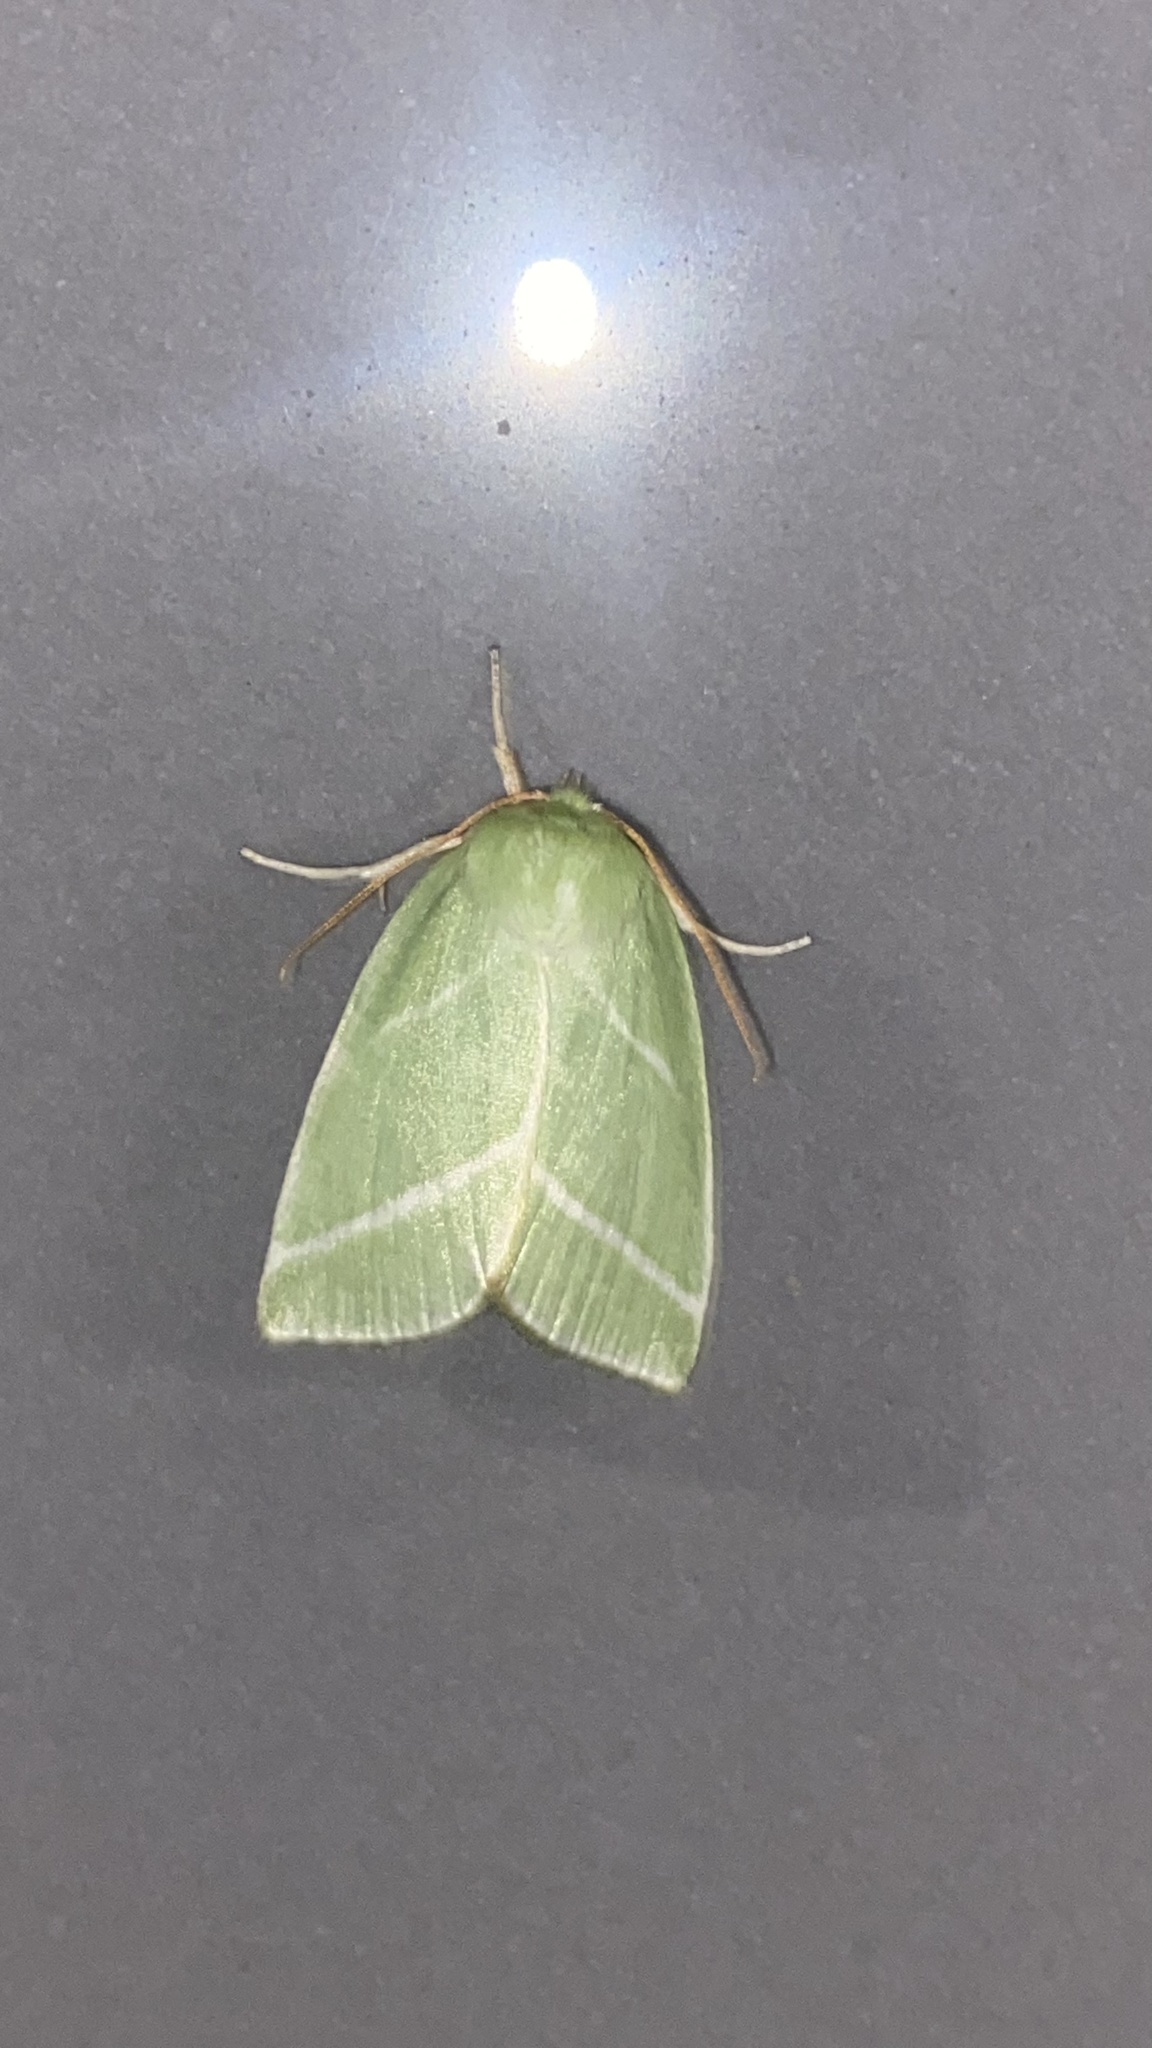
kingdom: Animalia
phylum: Arthropoda
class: Insecta
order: Lepidoptera
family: Nolidae
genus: Pseudoips
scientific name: Pseudoips prasinana
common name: Green silver-lines
